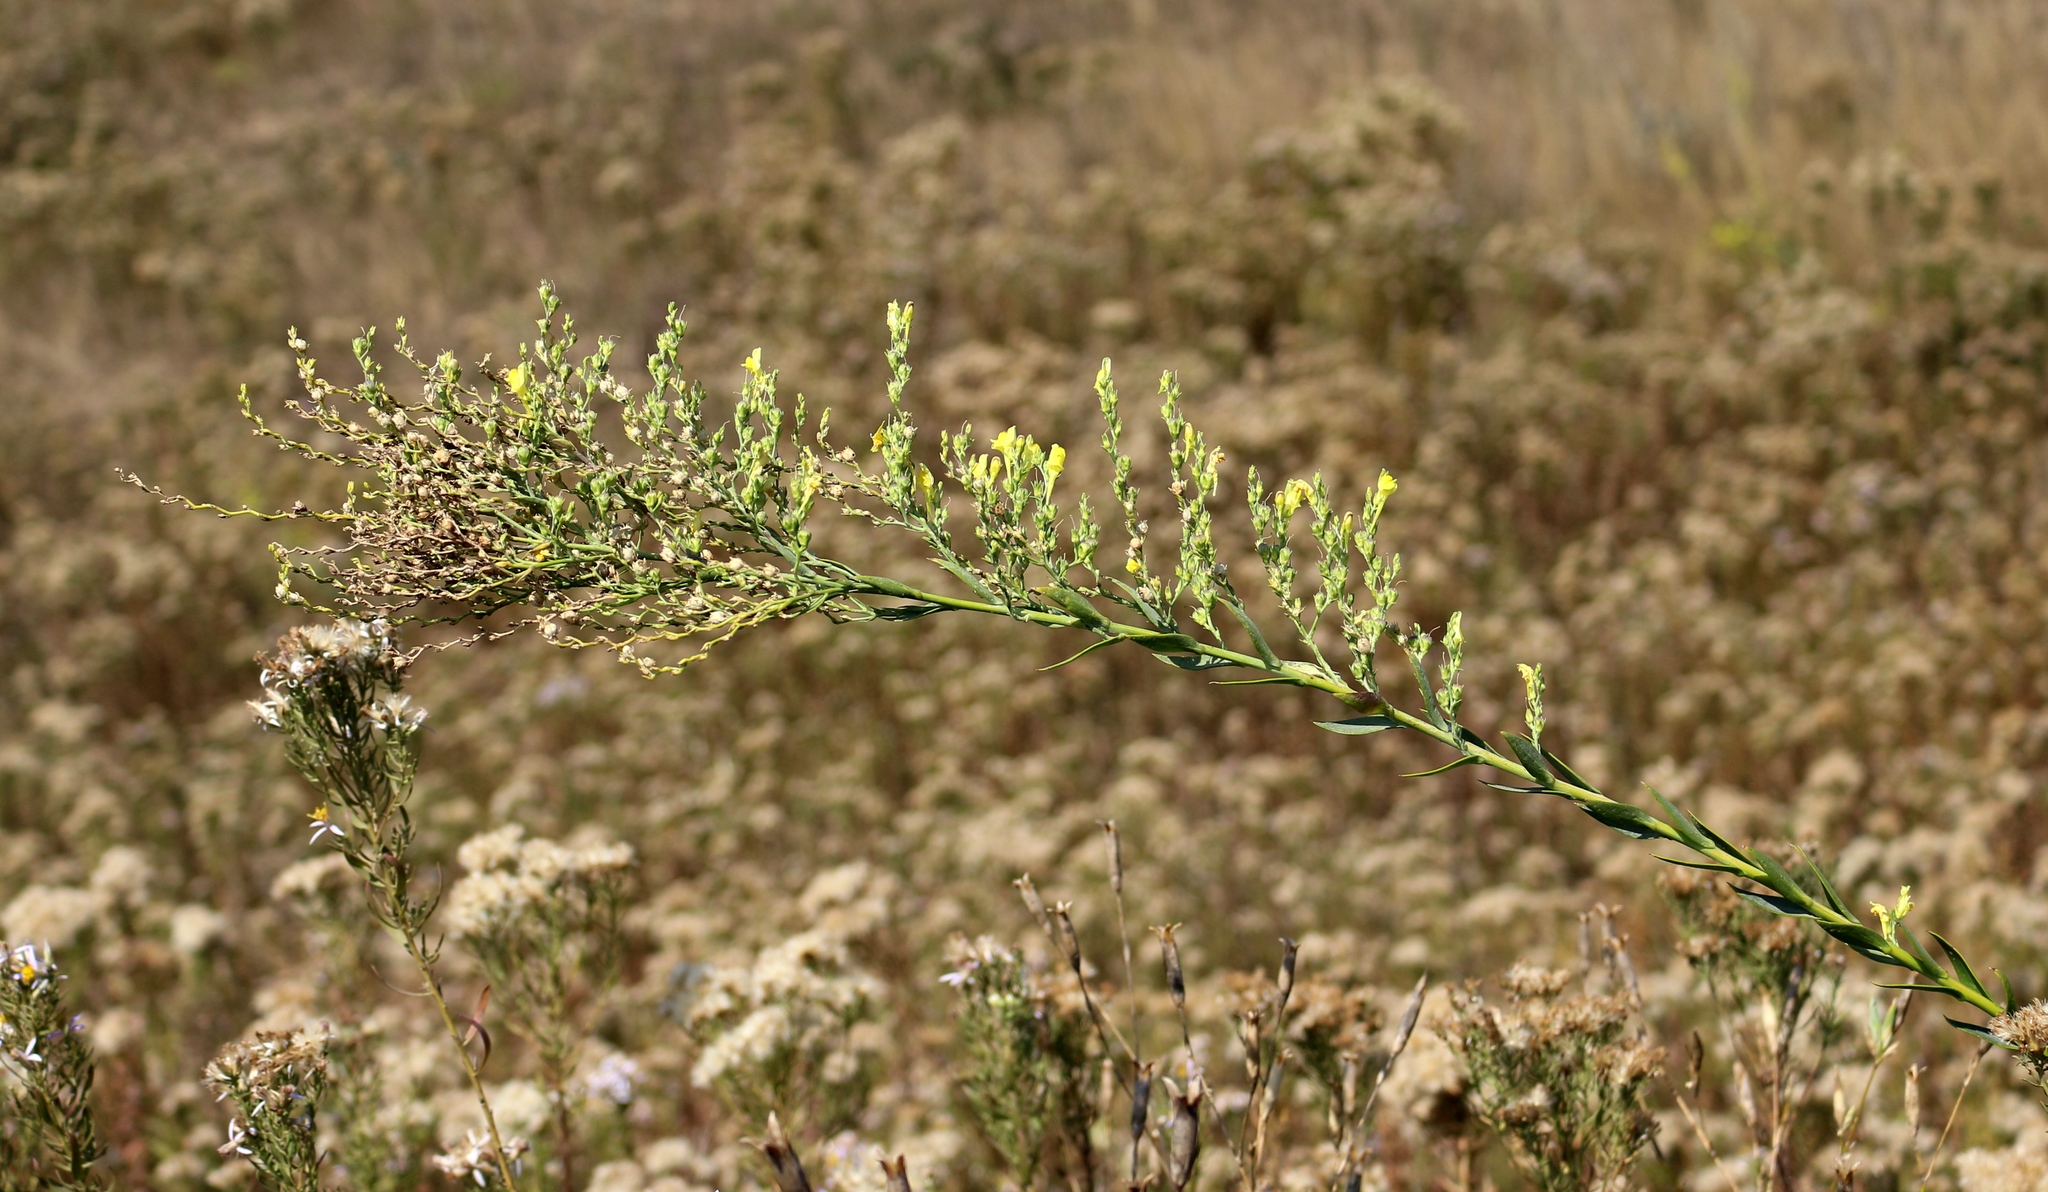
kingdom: Plantae
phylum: Tracheophyta
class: Magnoliopsida
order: Lamiales
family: Plantaginaceae
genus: Linaria
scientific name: Linaria genistifolia
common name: Broomleaf toadflax
